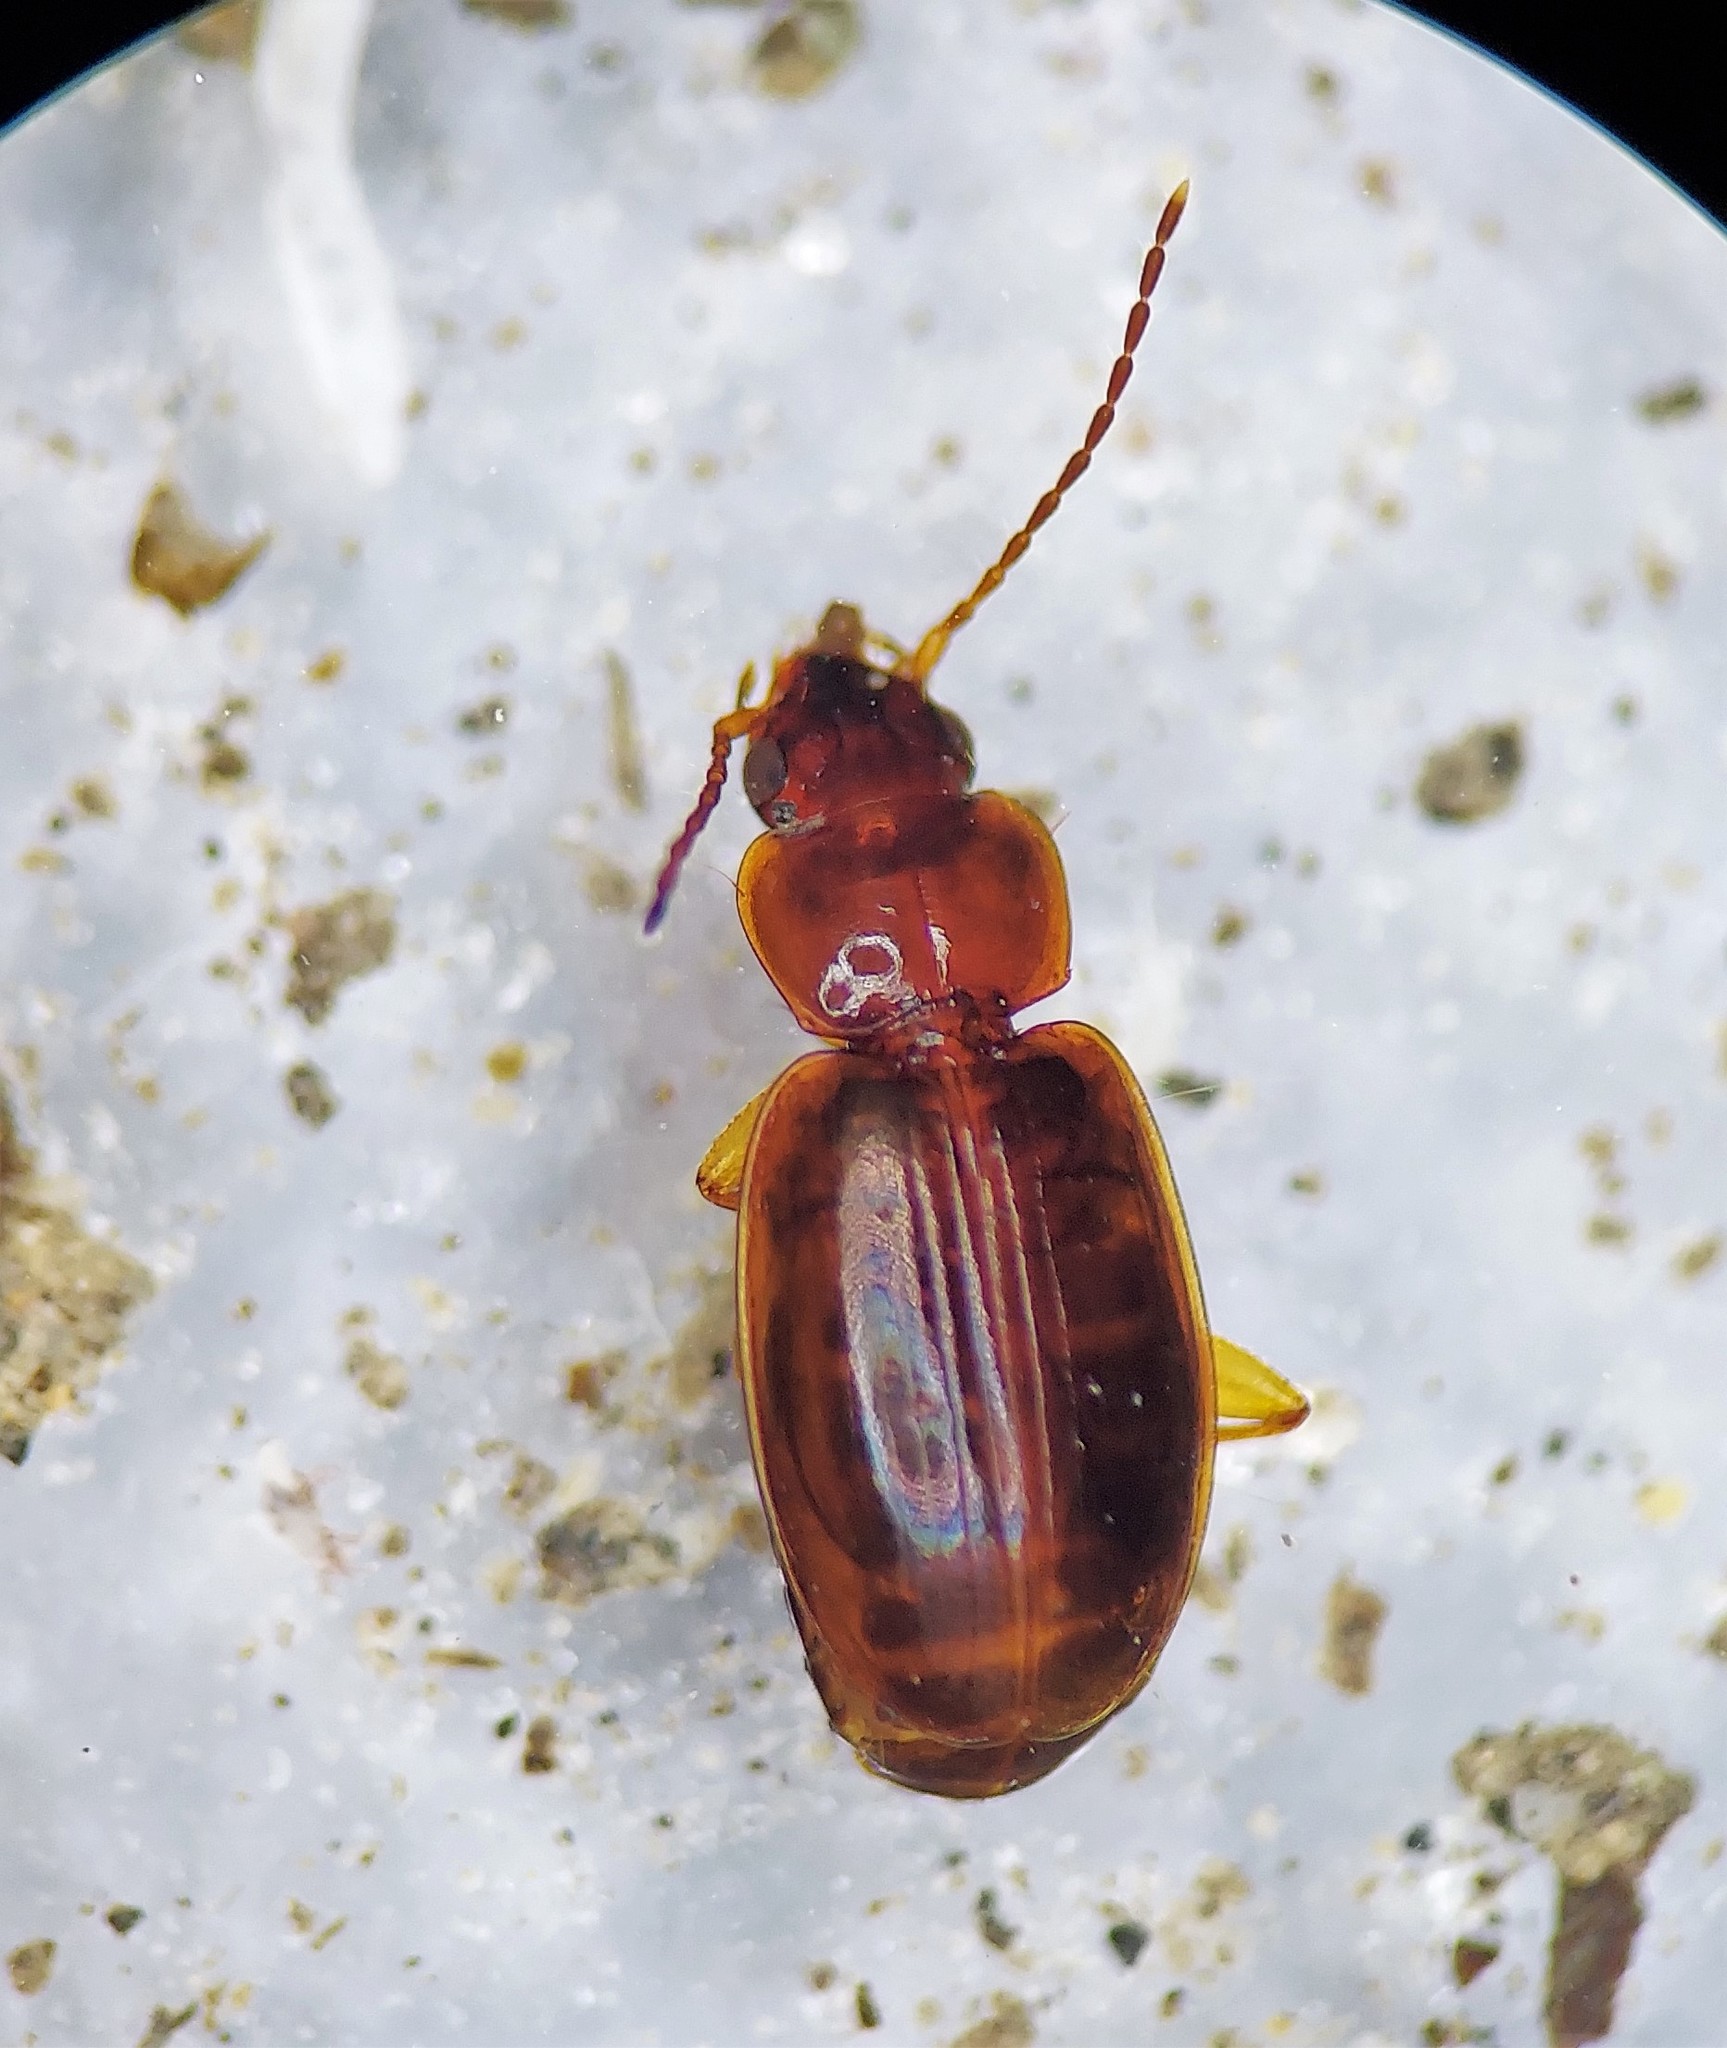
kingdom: Animalia
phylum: Arthropoda
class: Insecta
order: Coleoptera
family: Carabidae
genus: Trechus
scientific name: Trechus obtusus
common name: London riverbank ground beetle
